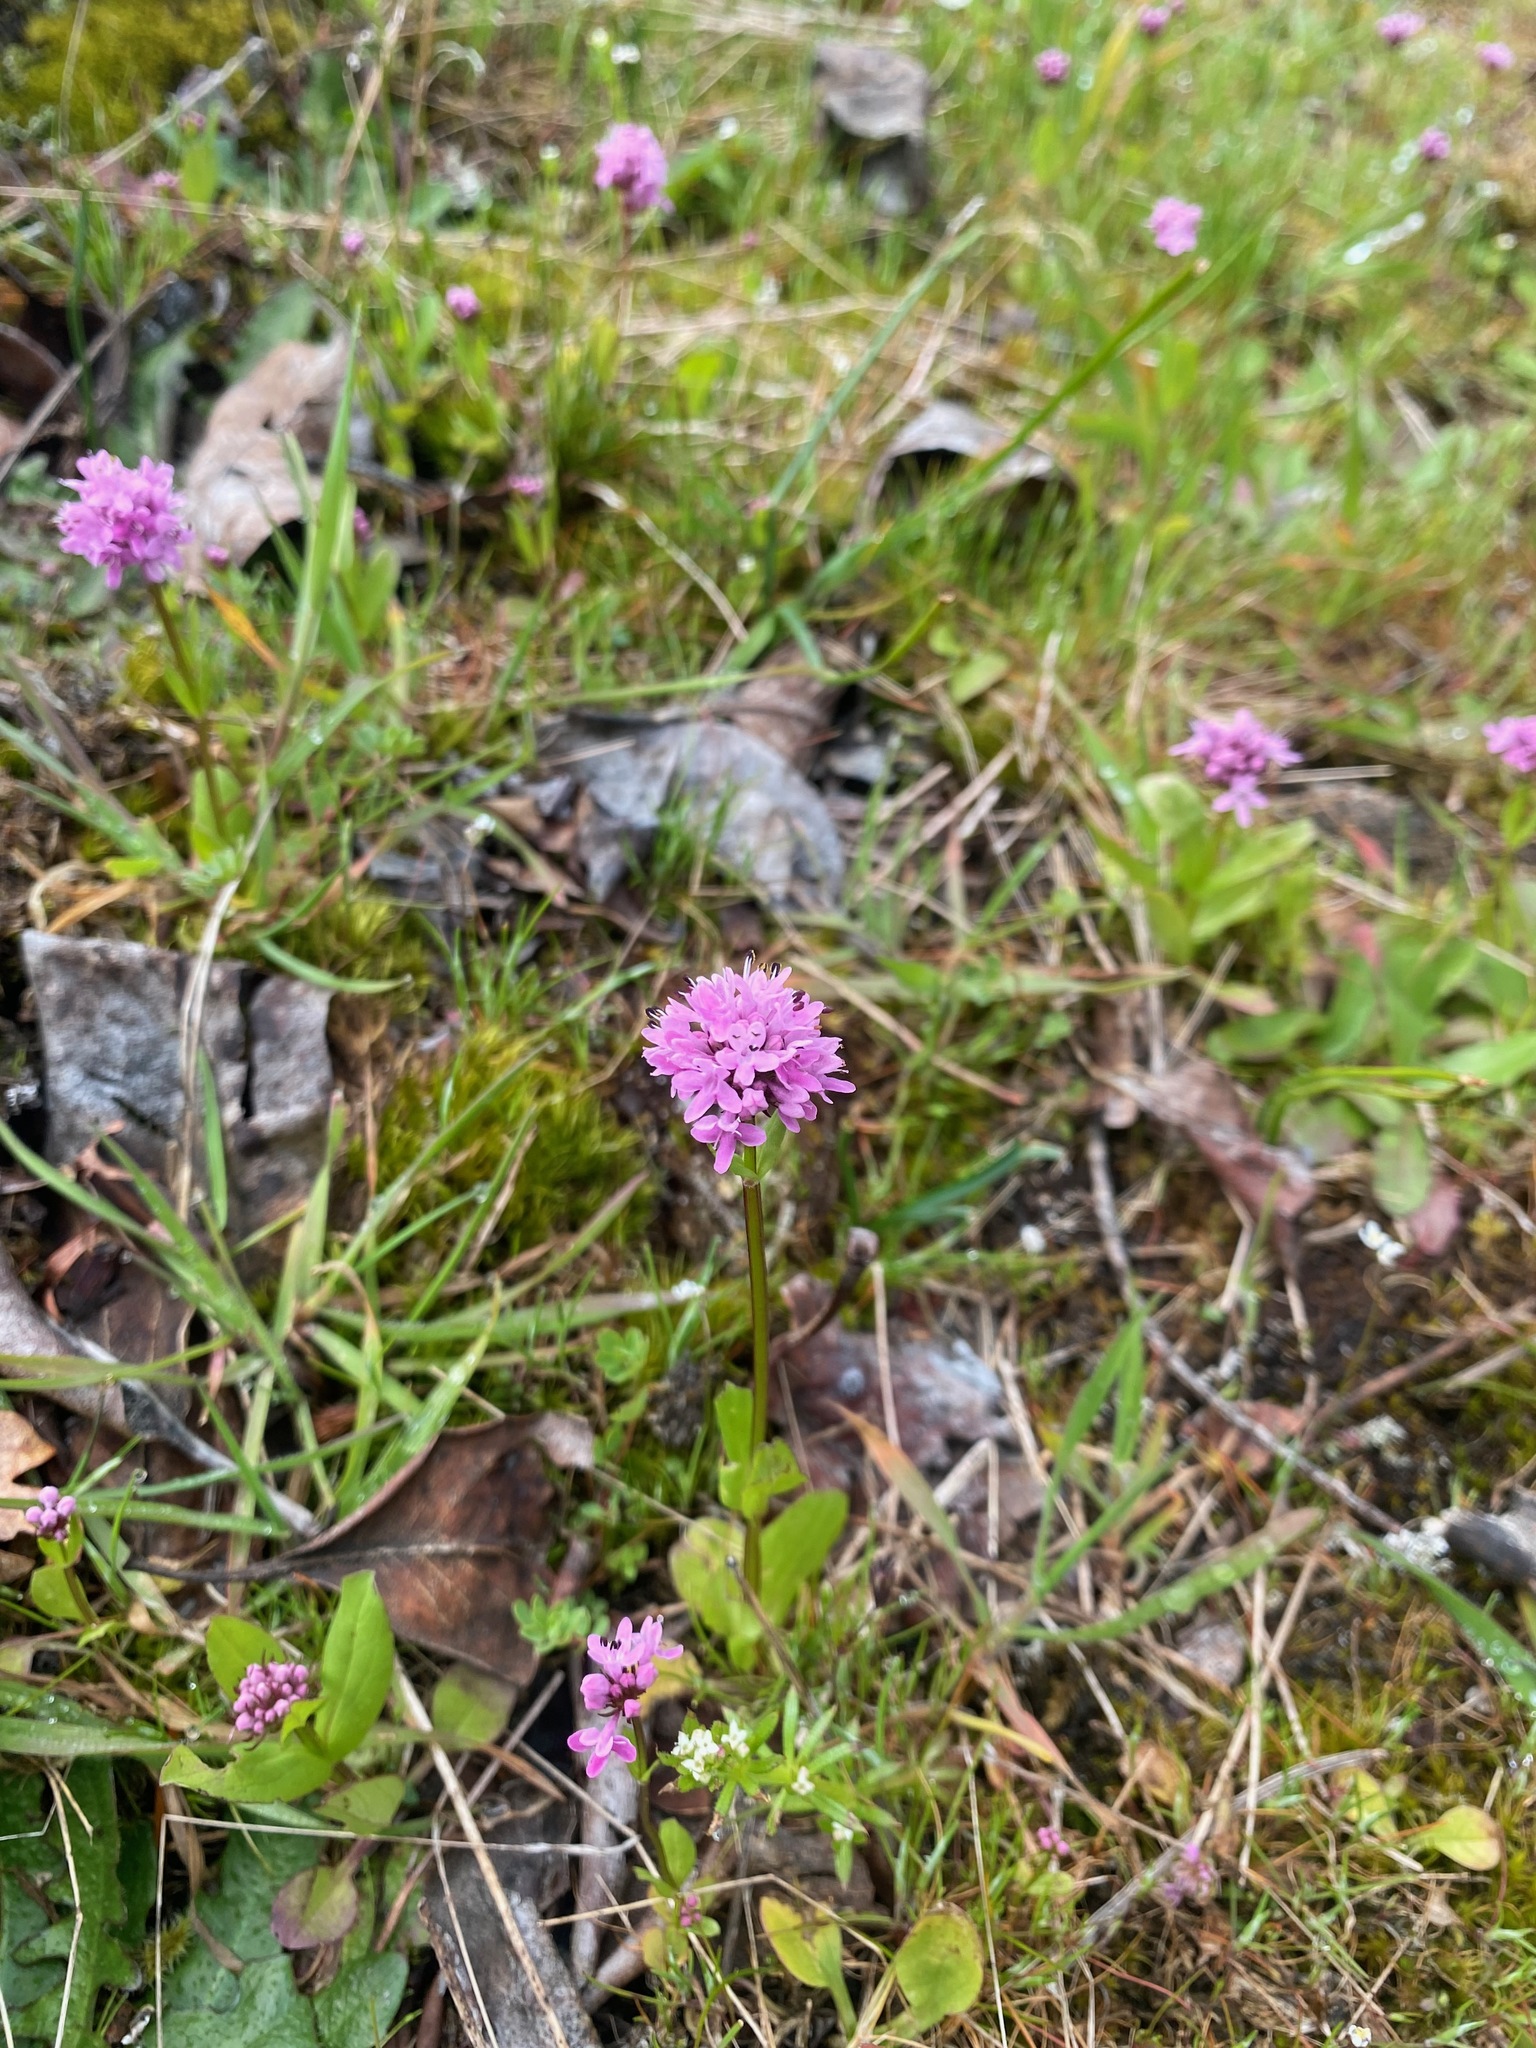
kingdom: Plantae
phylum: Tracheophyta
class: Magnoliopsida
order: Dipsacales
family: Caprifoliaceae
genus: Plectritis
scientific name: Plectritis congesta
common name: Pink plectritis
